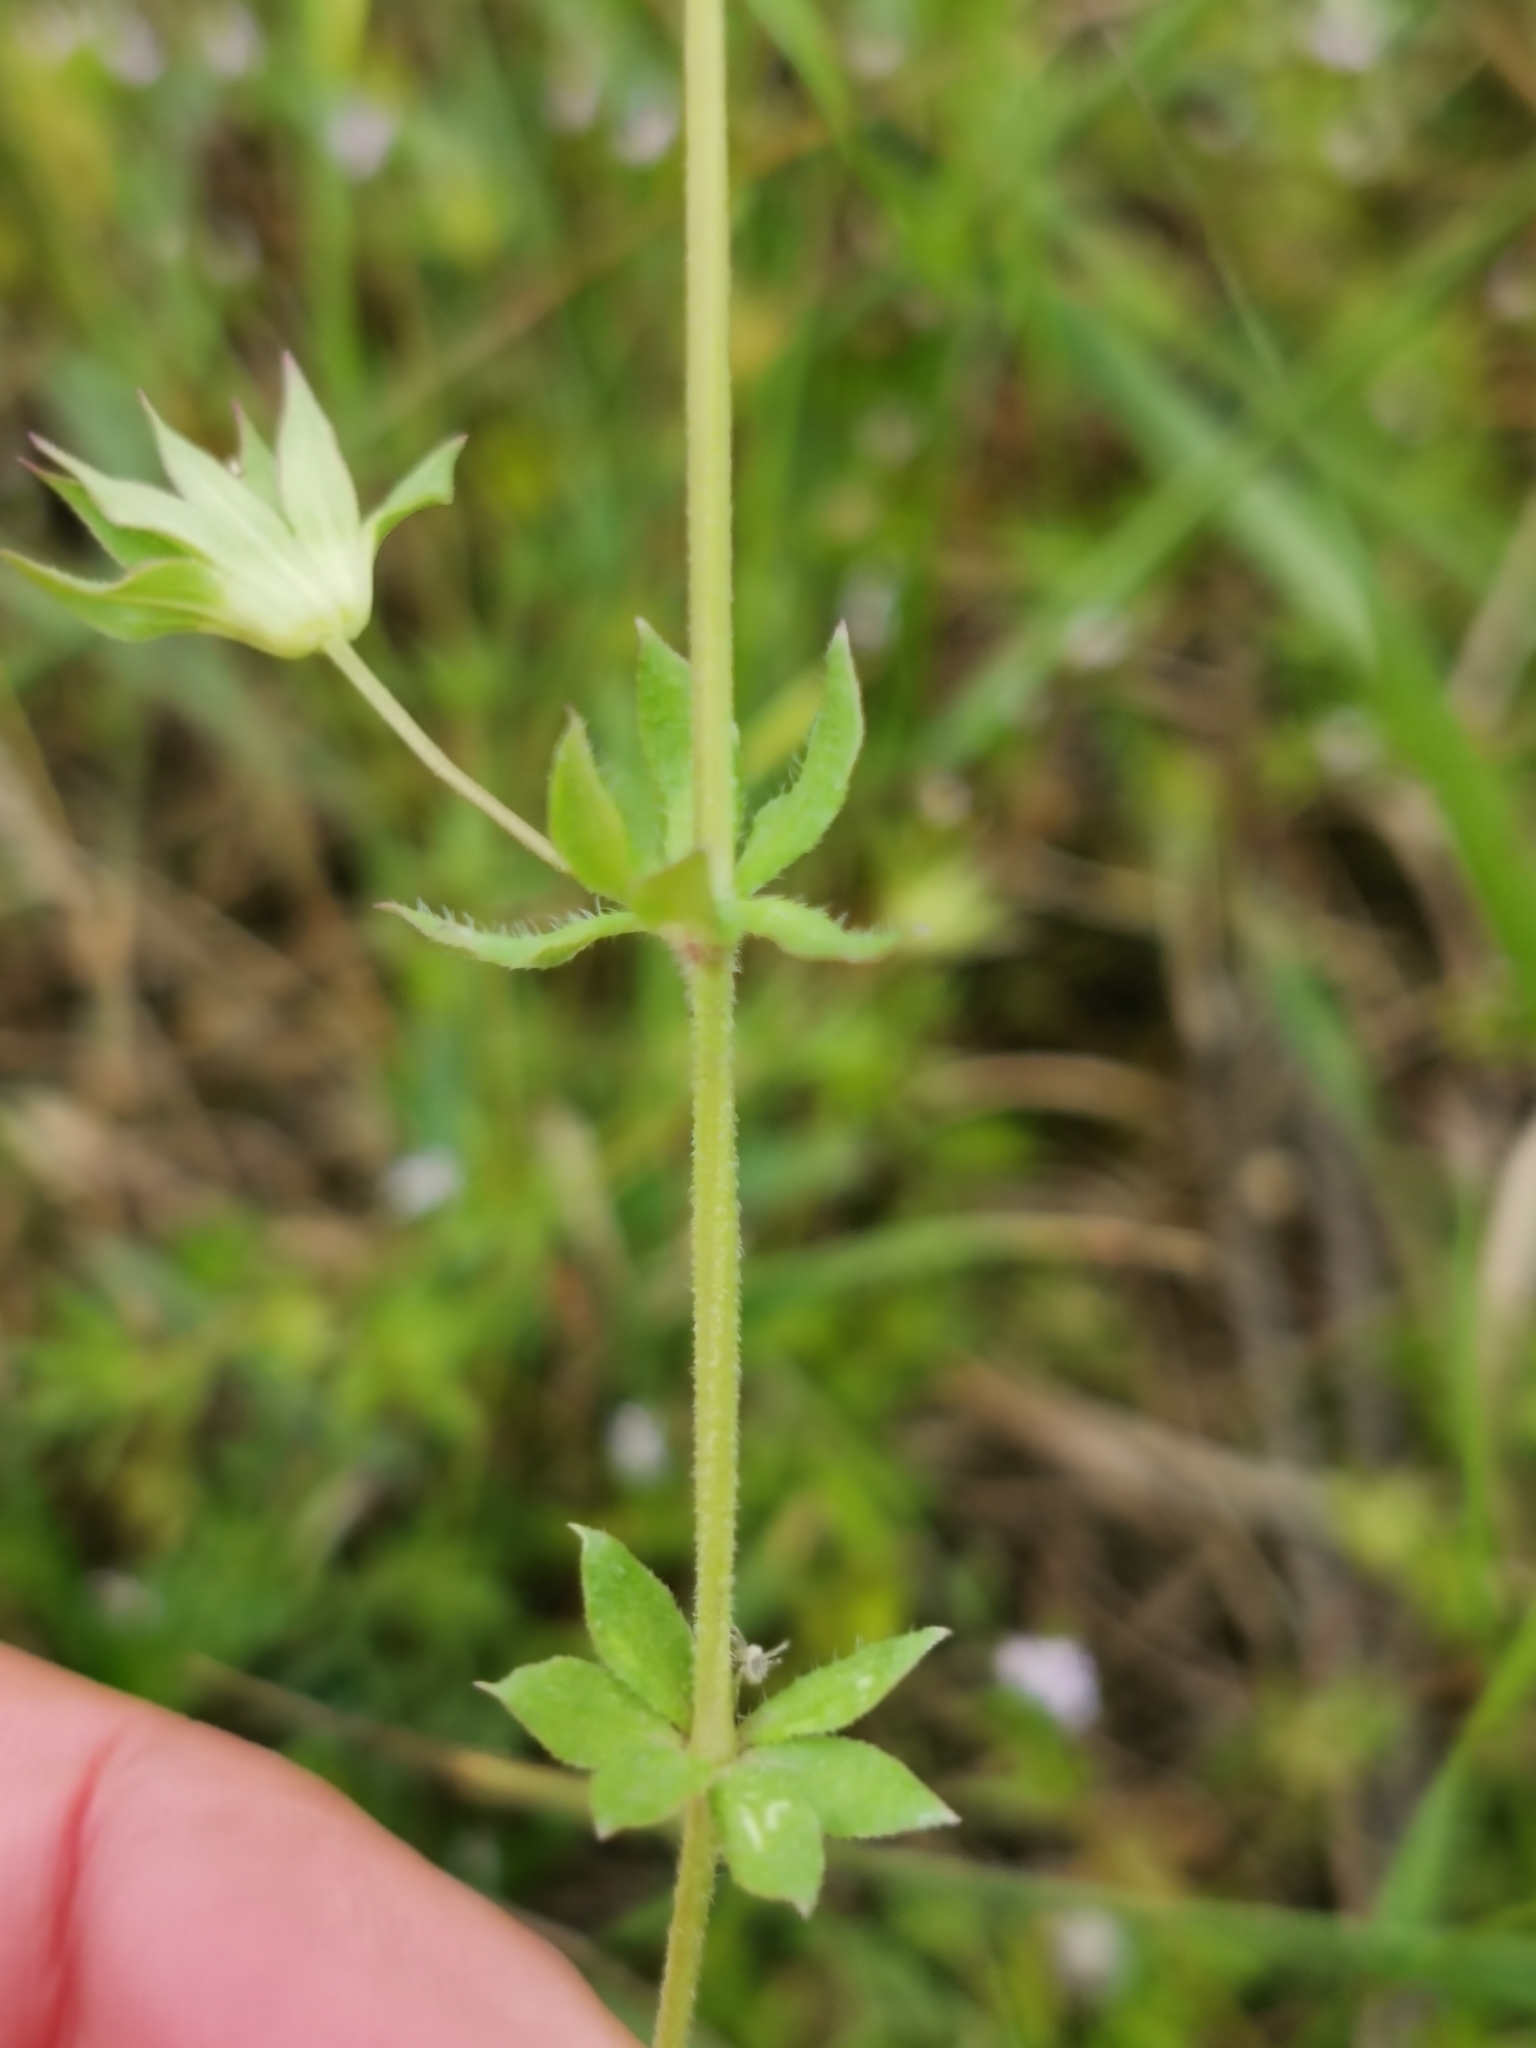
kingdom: Plantae
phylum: Tracheophyta
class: Magnoliopsida
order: Gentianales
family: Rubiaceae
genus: Sherardia
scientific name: Sherardia arvensis
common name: Field madder
